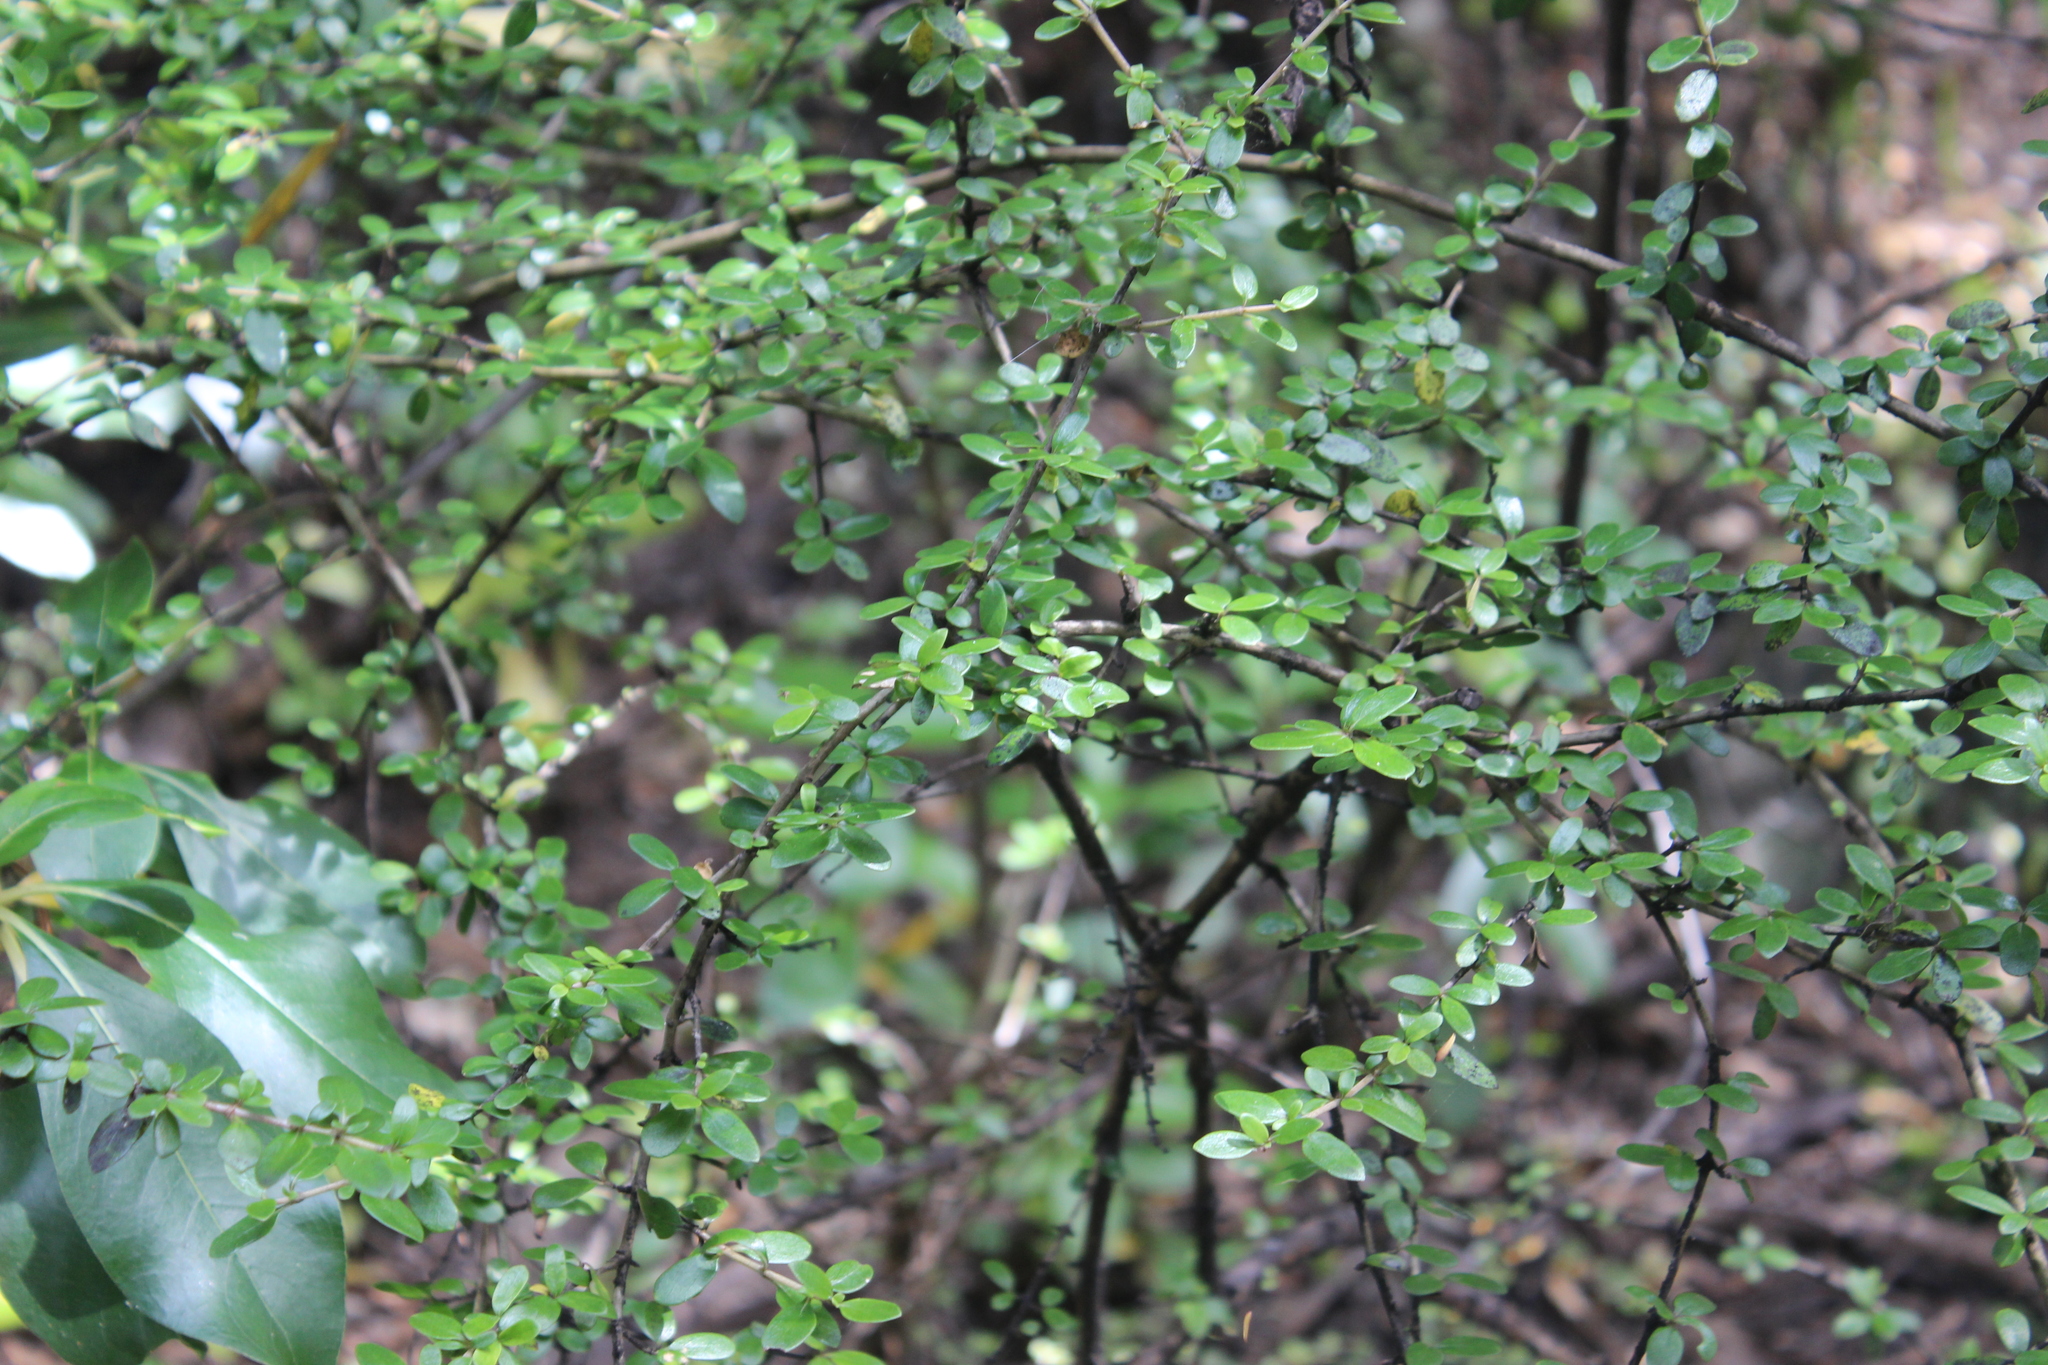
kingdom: Plantae
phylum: Tracheophyta
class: Magnoliopsida
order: Gentianales
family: Rubiaceae
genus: Coprosma
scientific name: Coprosma dumosa
